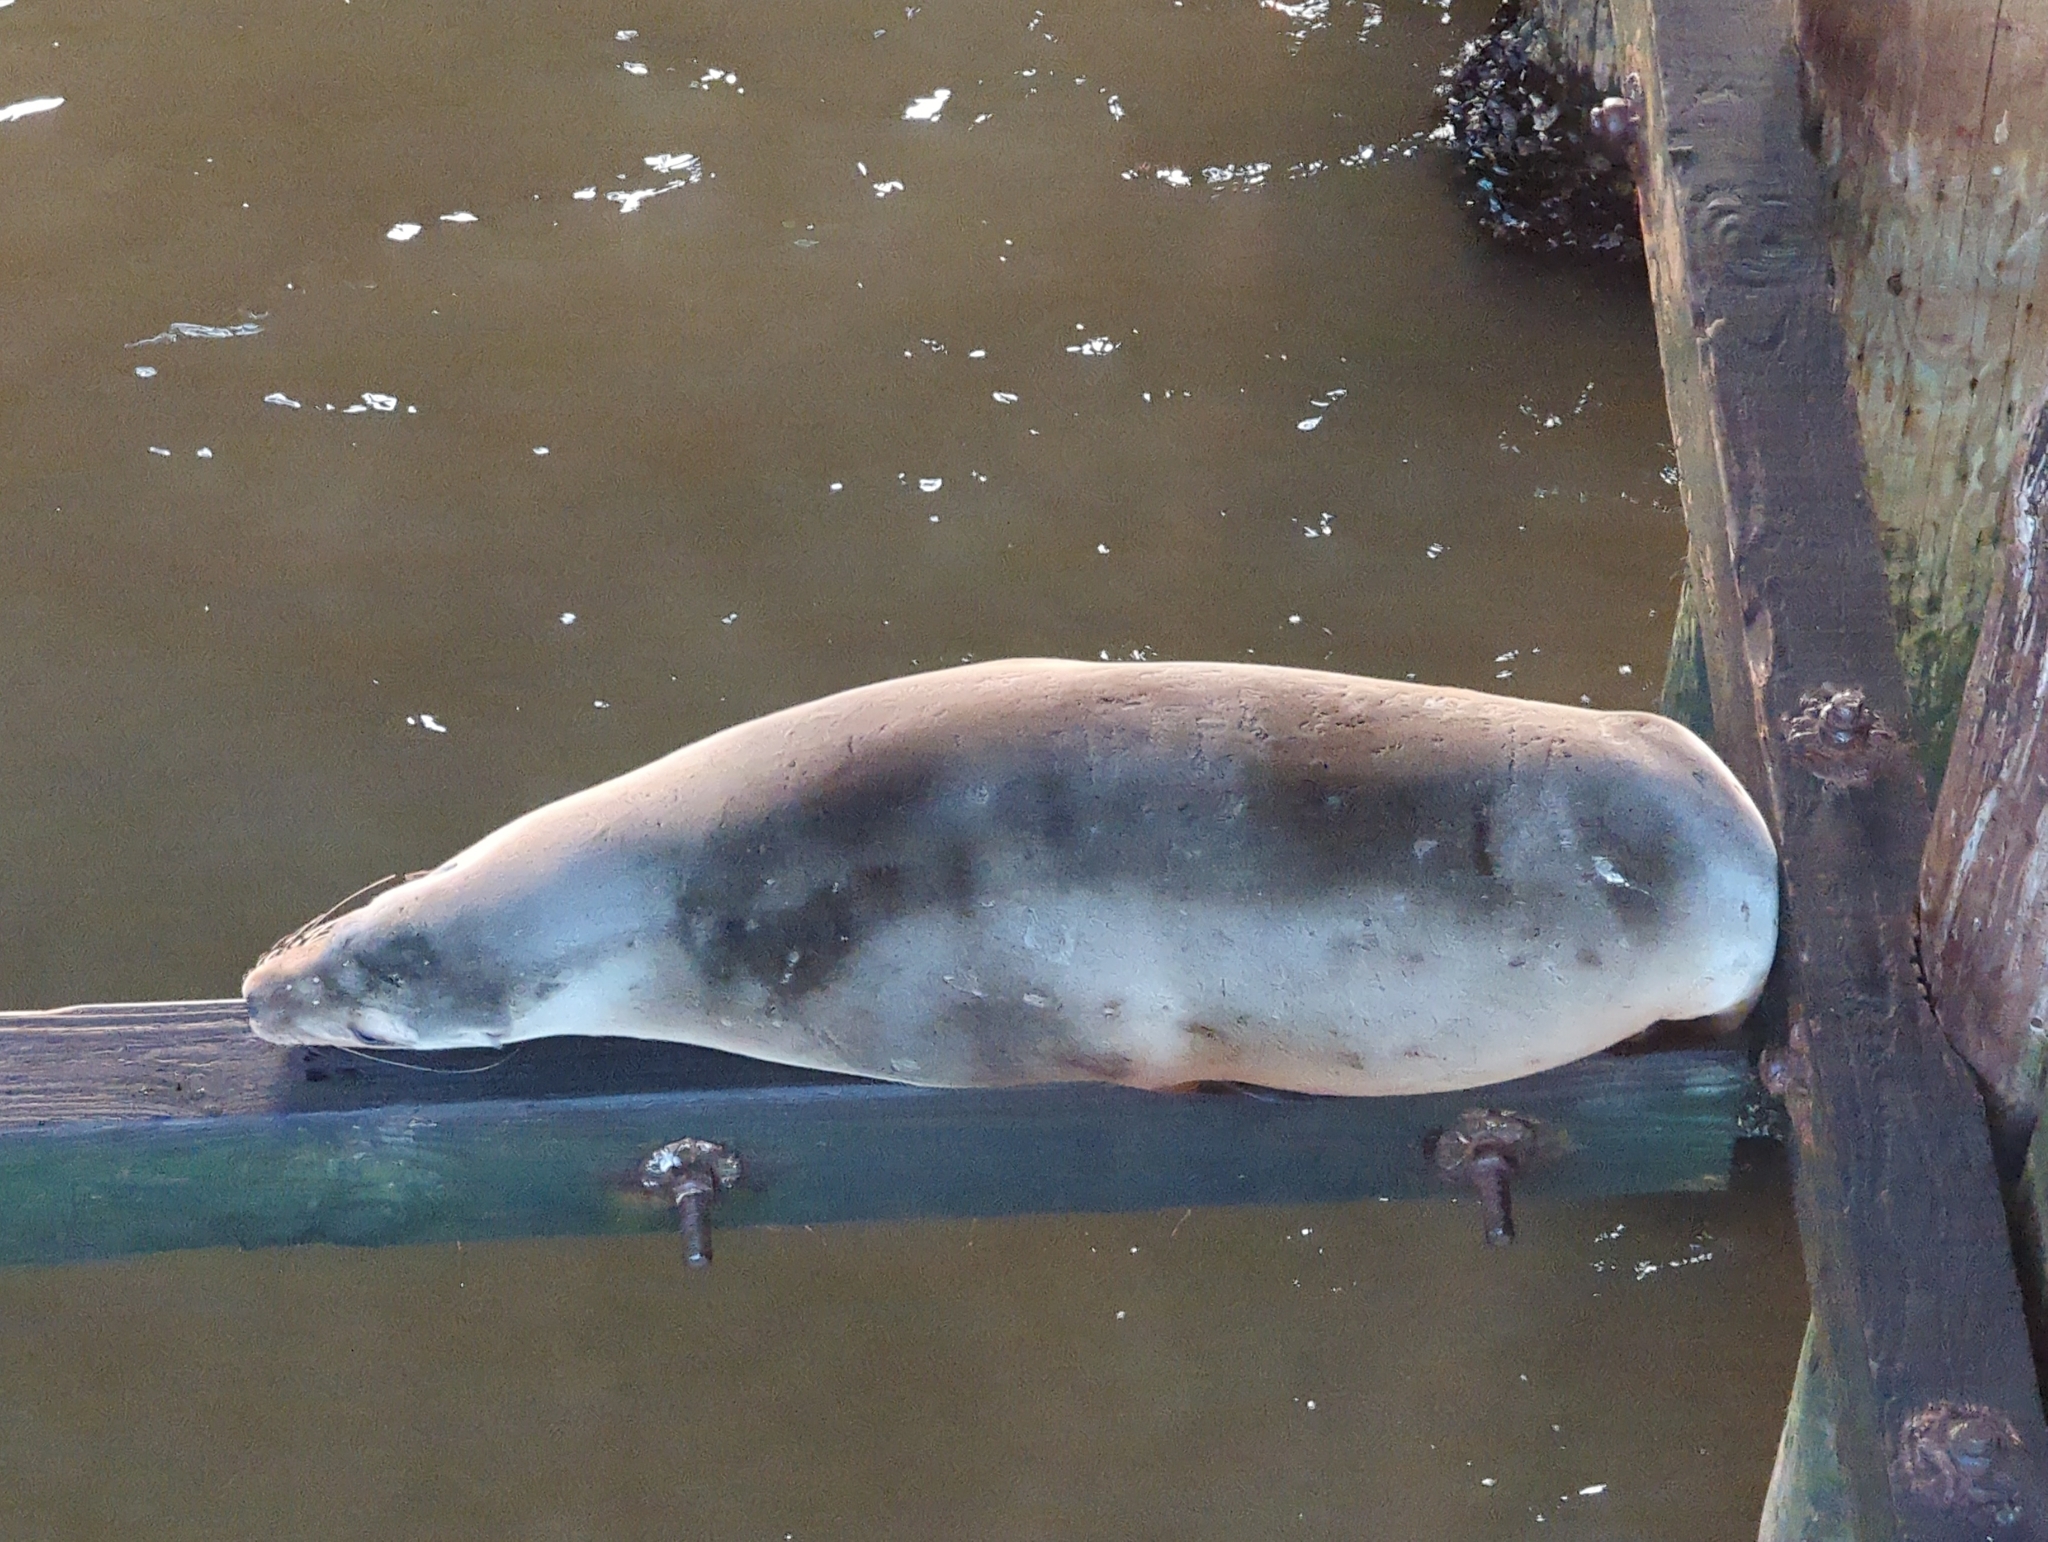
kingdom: Animalia
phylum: Chordata
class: Mammalia
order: Carnivora
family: Otariidae
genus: Zalophus
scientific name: Zalophus californianus
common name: California sea lion
